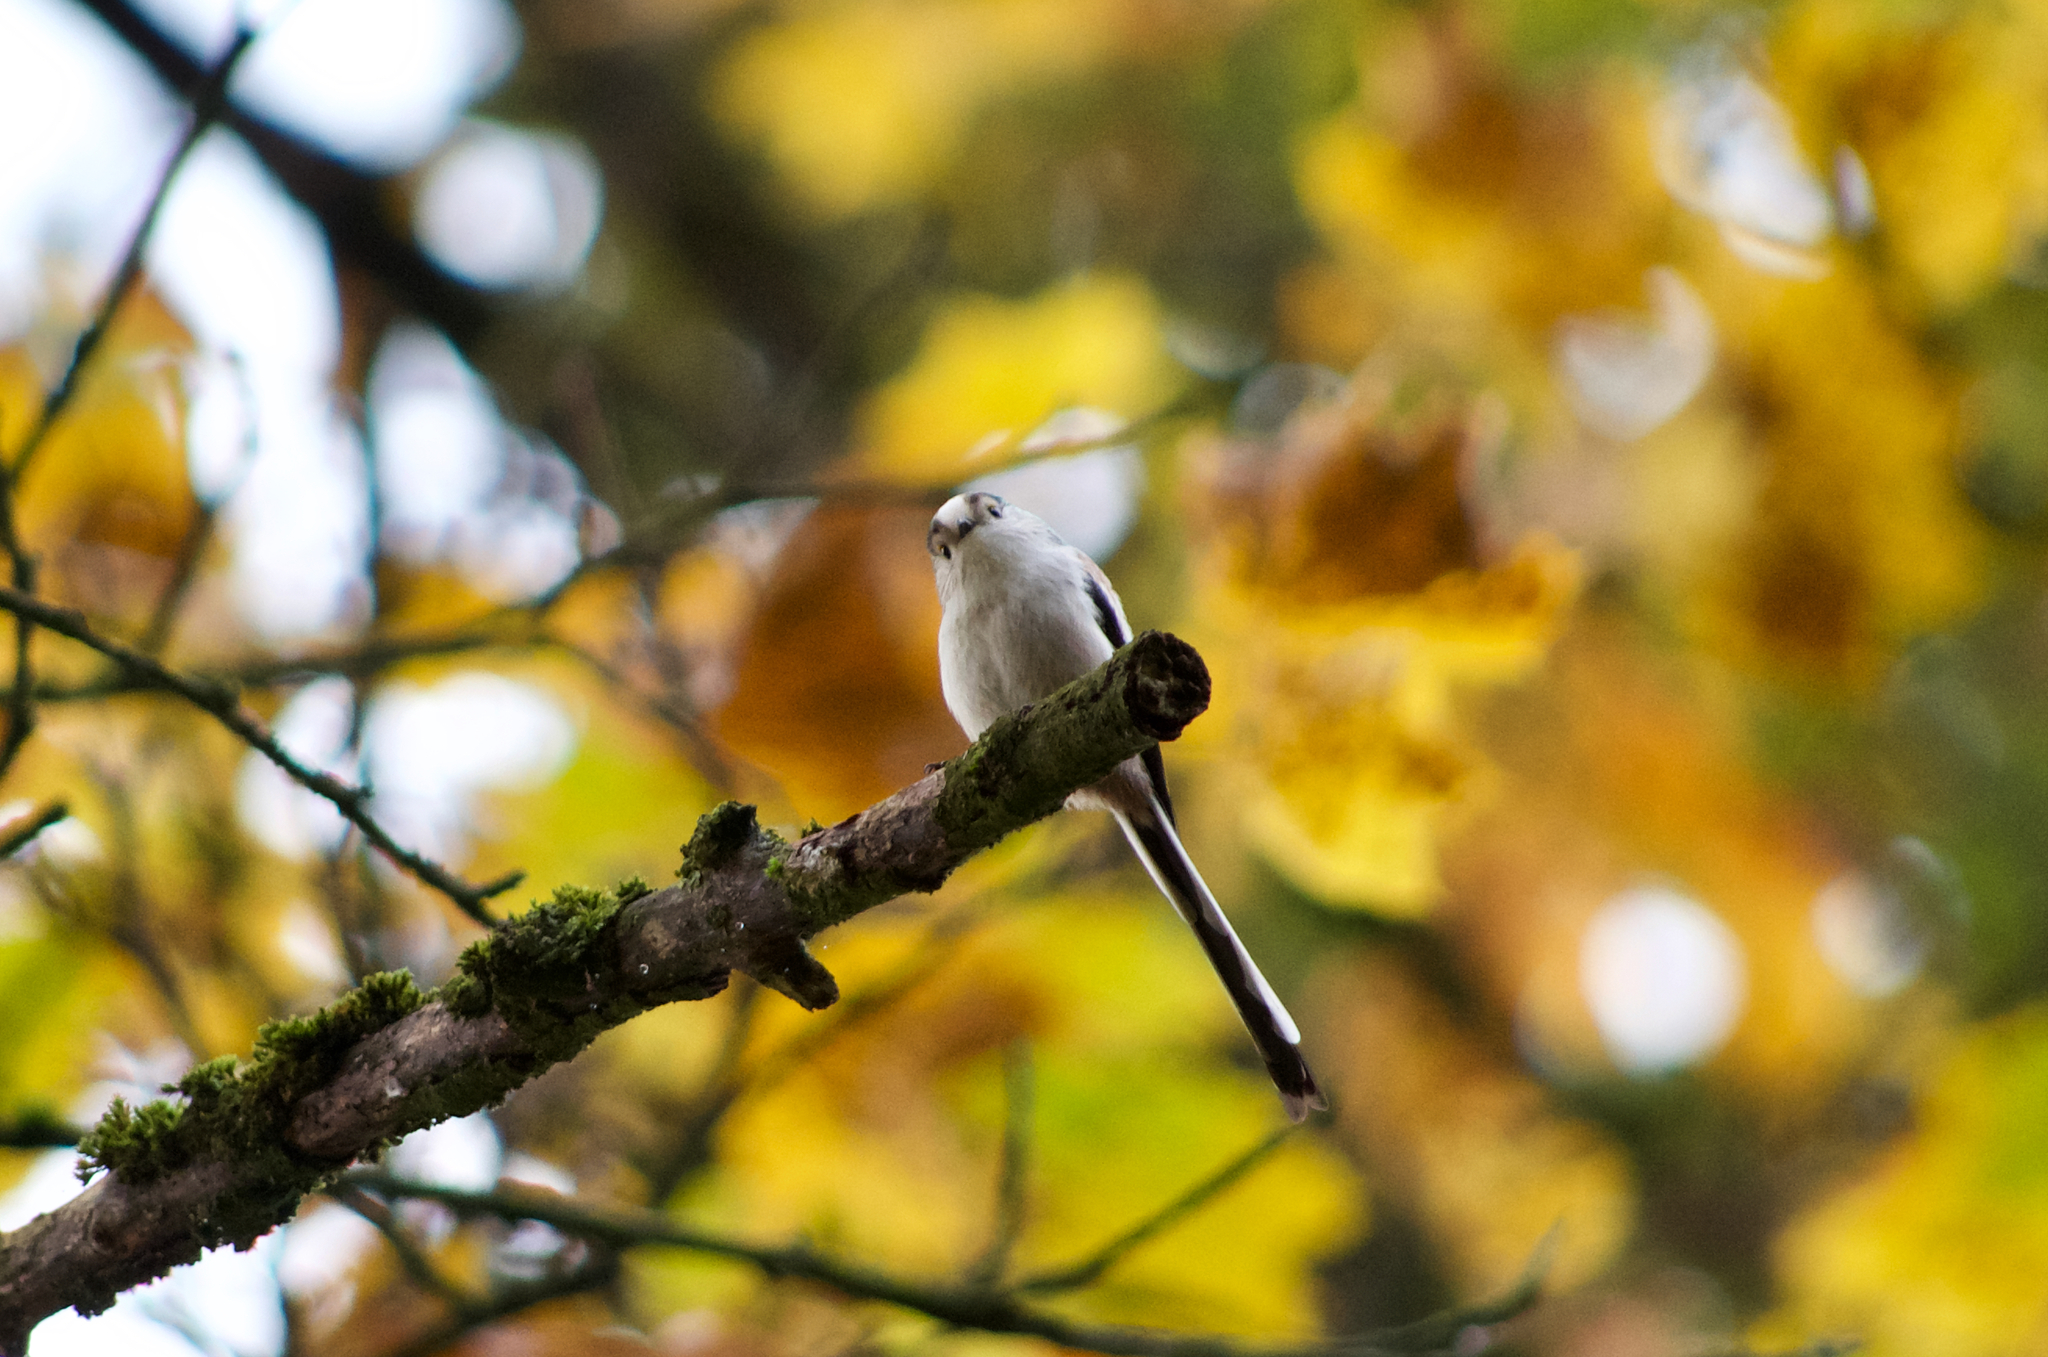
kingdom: Animalia
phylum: Chordata
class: Aves
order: Passeriformes
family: Aegithalidae
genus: Aegithalos
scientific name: Aegithalos caudatus
